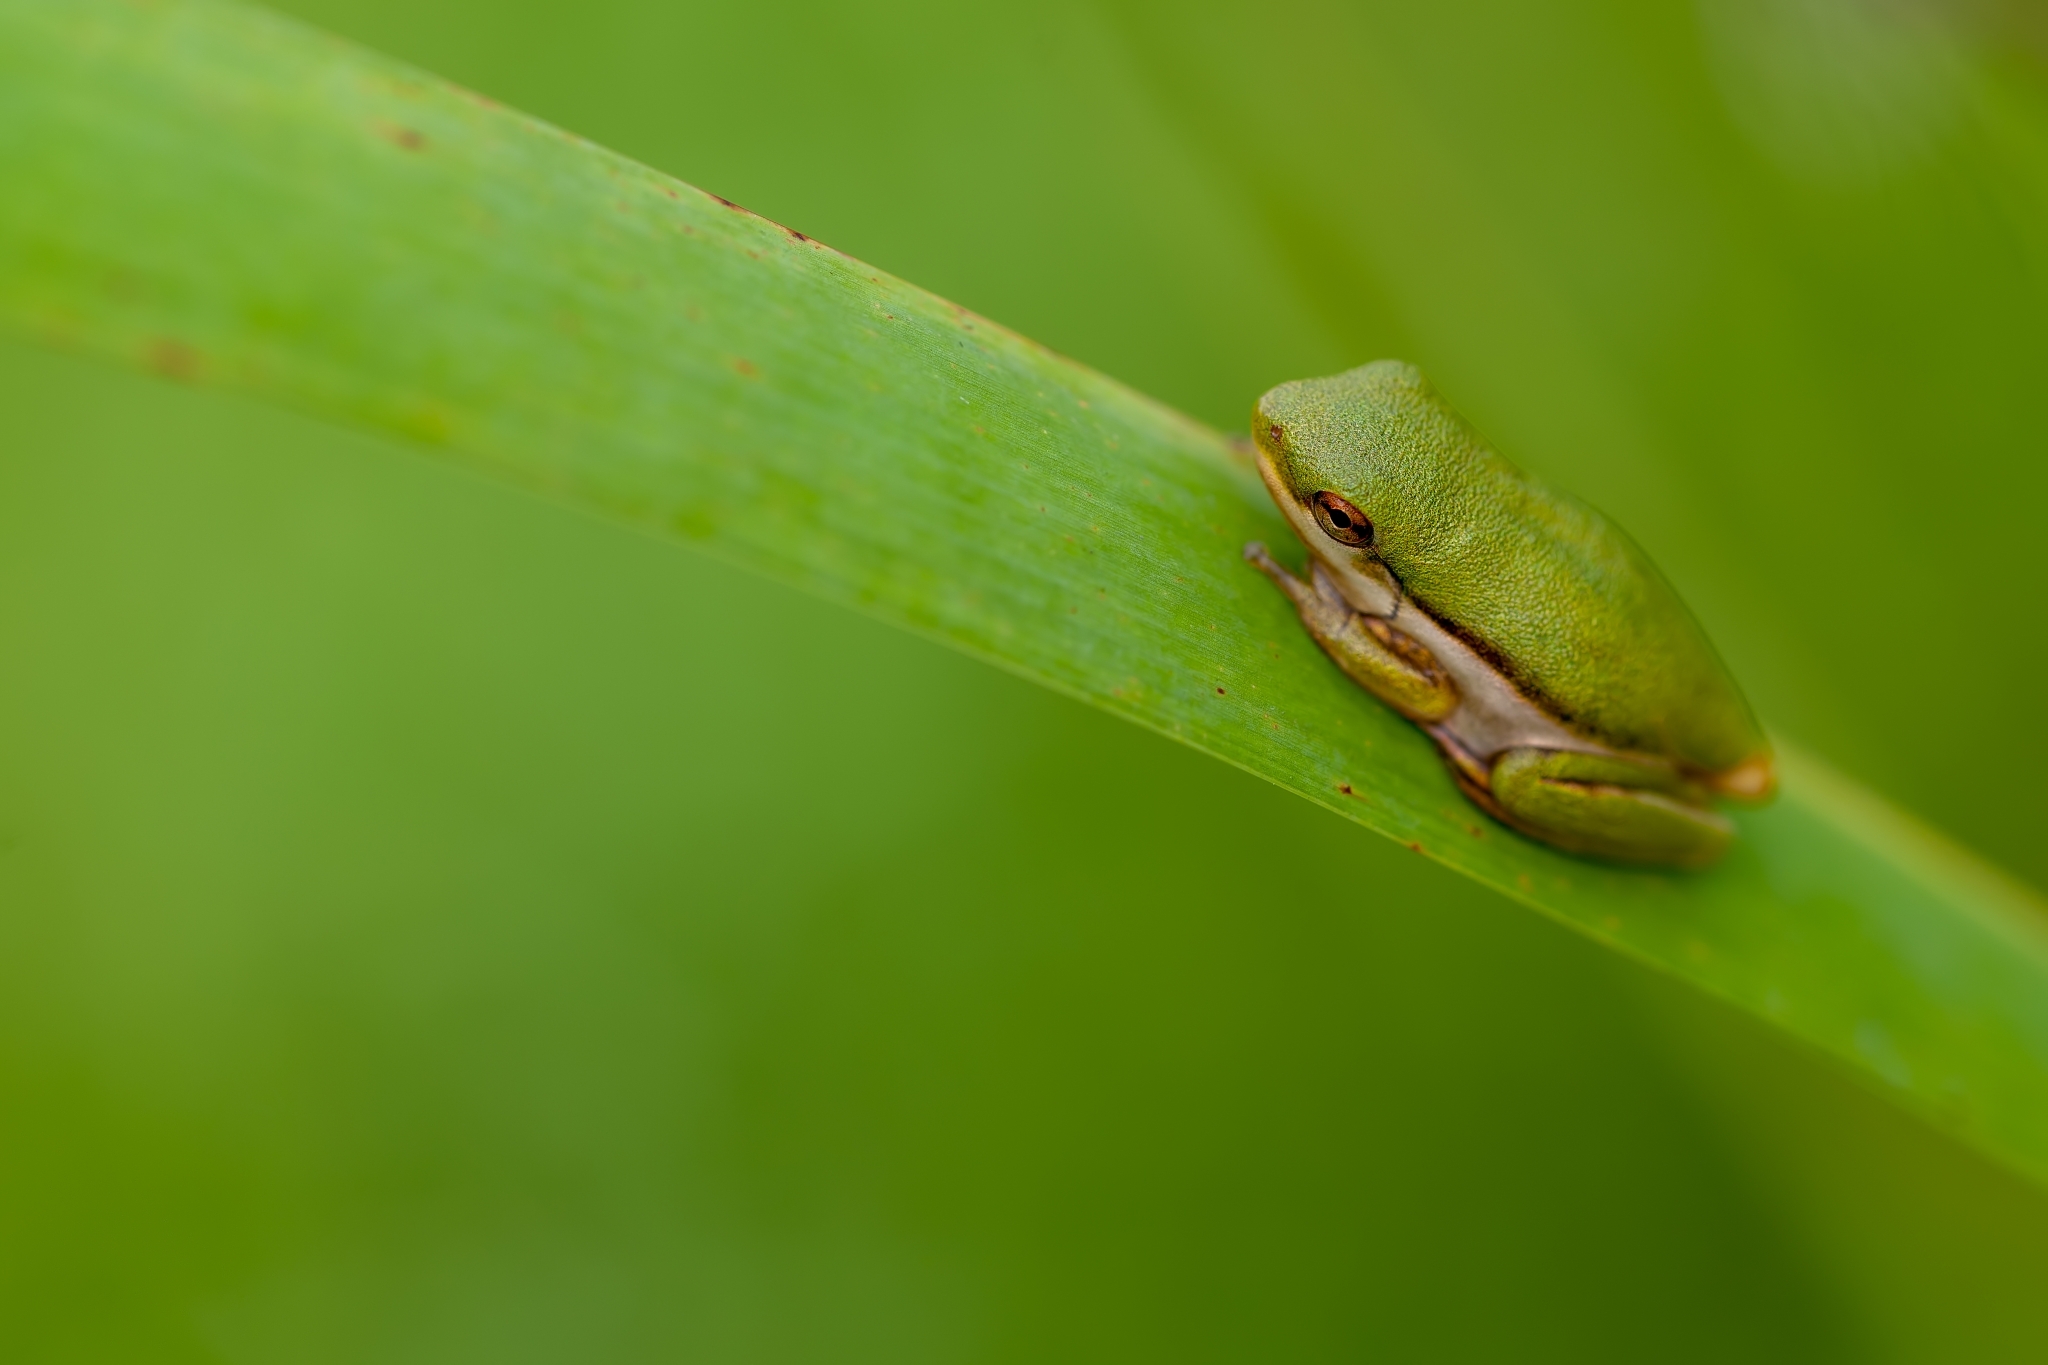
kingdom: Animalia
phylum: Chordata
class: Amphibia
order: Anura
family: Hylidae
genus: Dryophytes
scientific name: Dryophytes cinereus
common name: Green treefrog
